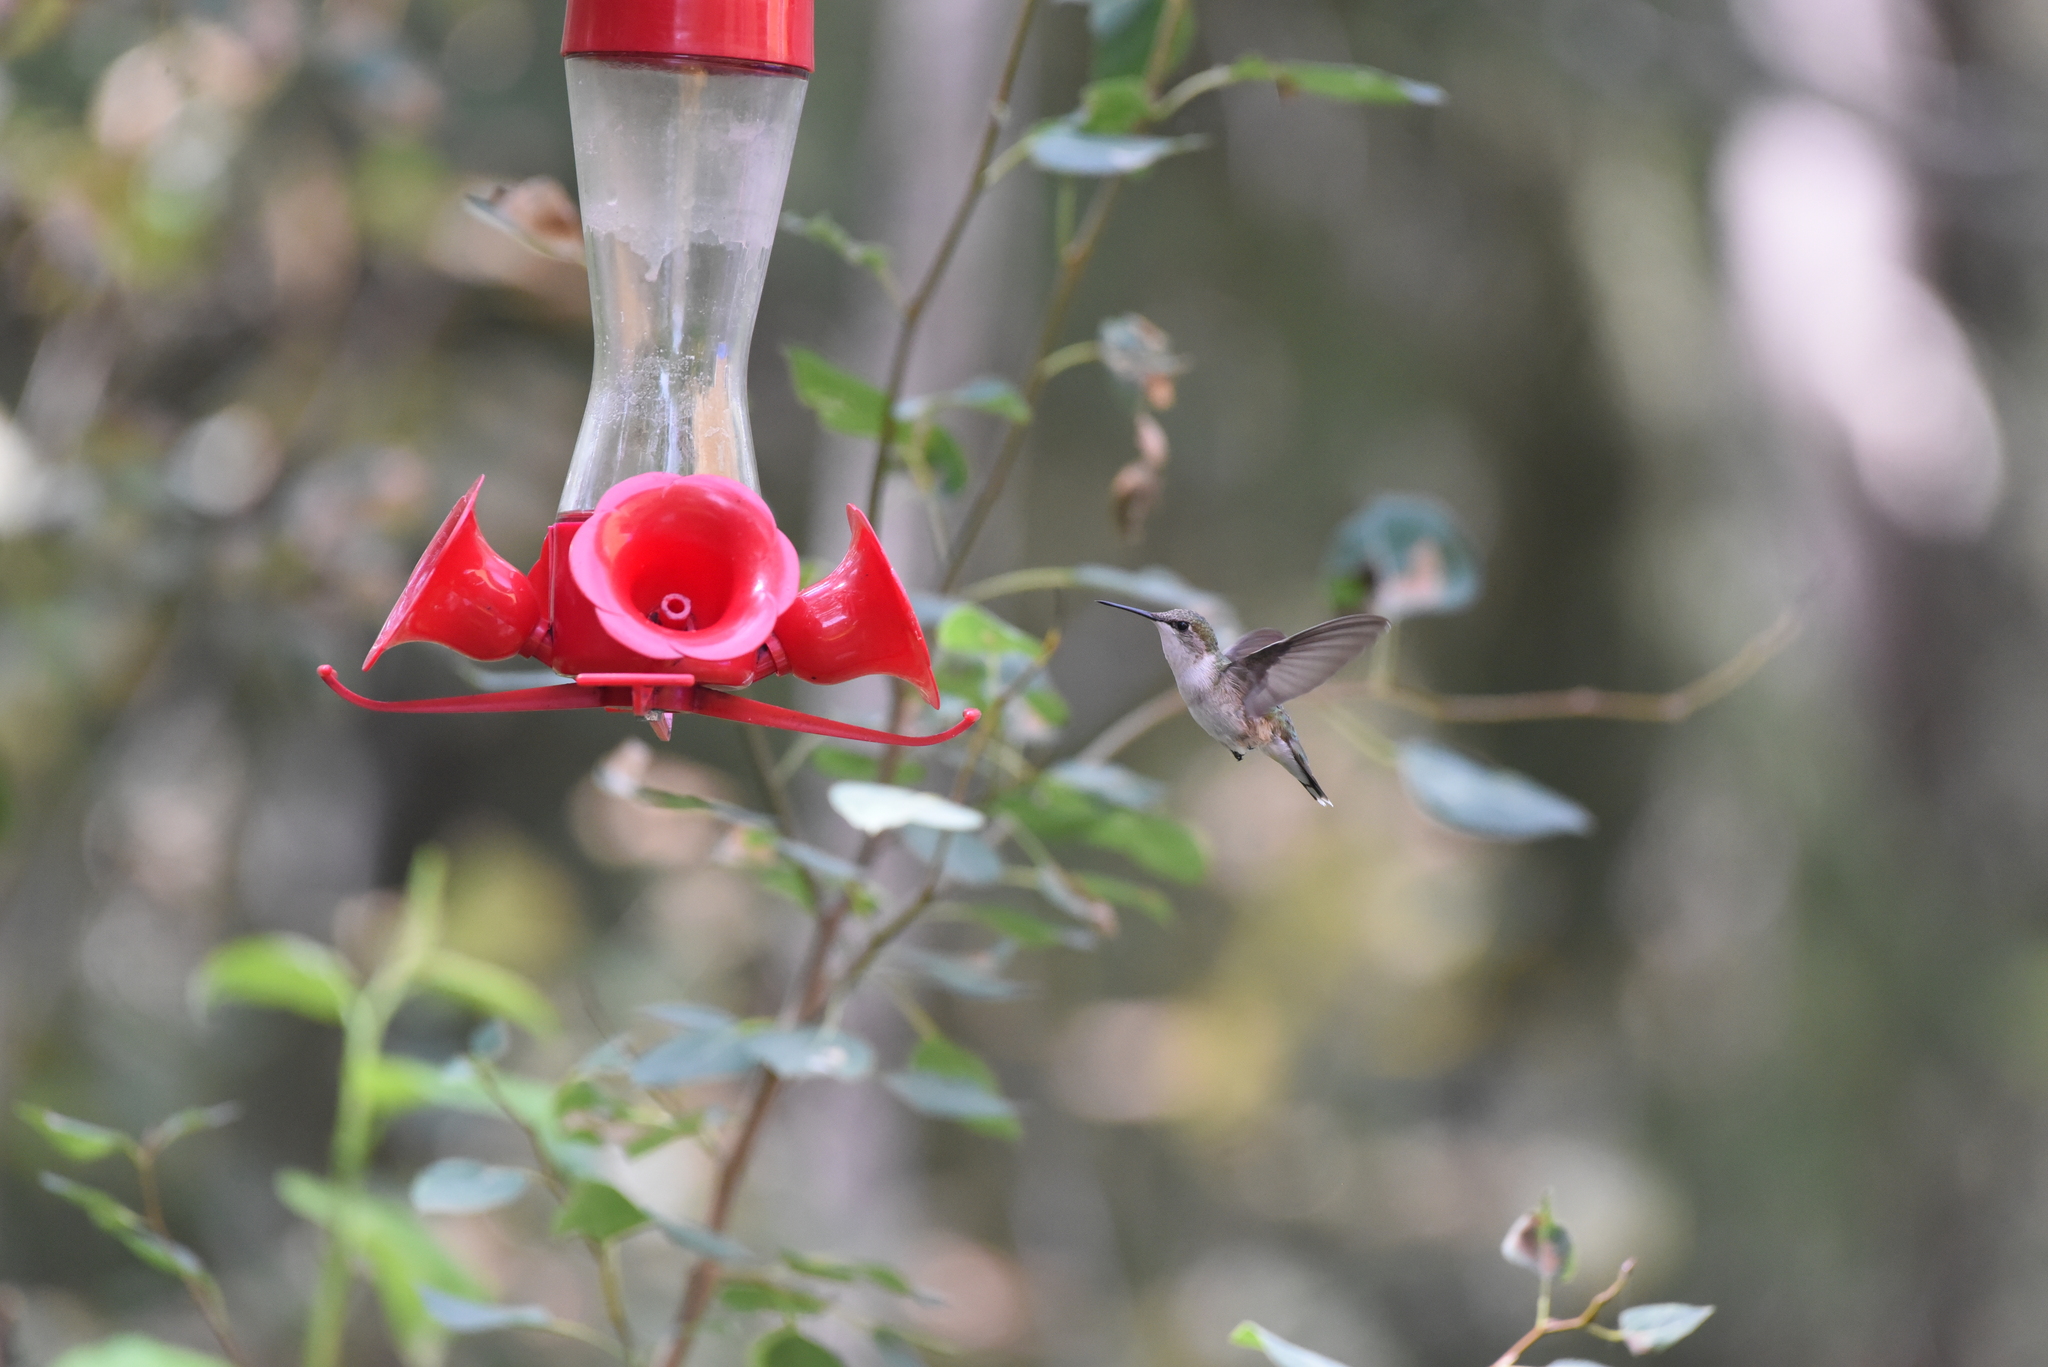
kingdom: Animalia
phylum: Chordata
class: Aves
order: Apodiformes
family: Trochilidae
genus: Archilochus
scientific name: Archilochus colubris
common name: Ruby-throated hummingbird
